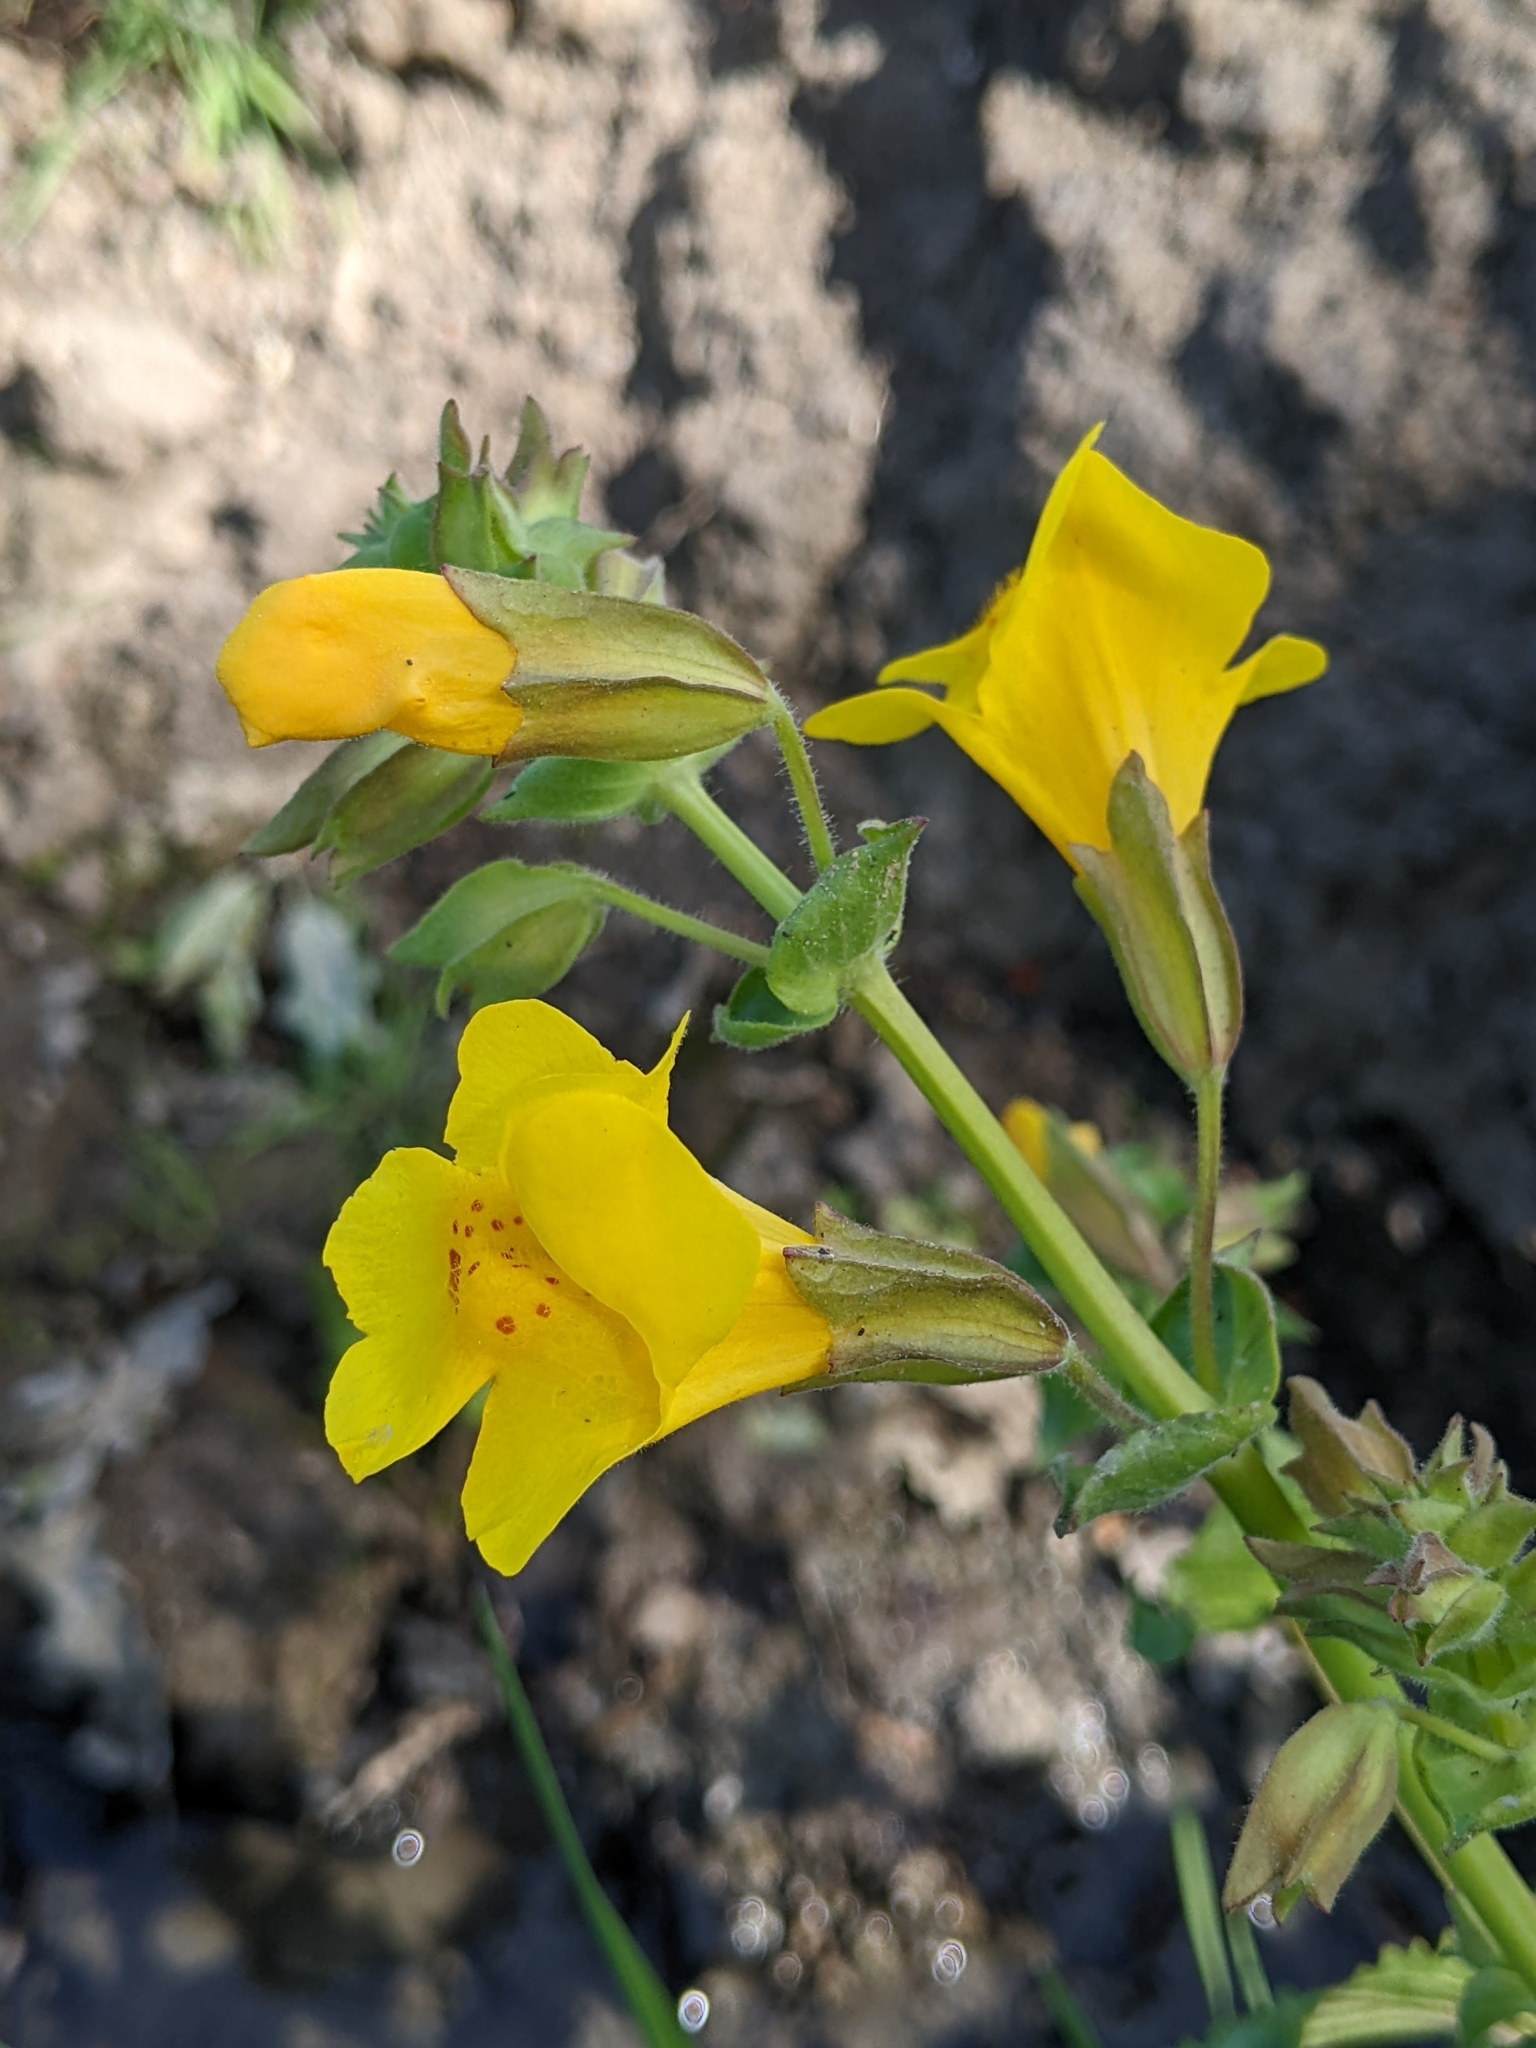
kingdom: Plantae
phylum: Tracheophyta
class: Magnoliopsida
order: Lamiales
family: Phrymaceae
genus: Erythranthe
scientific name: Erythranthe guttata
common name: Monkeyflower
